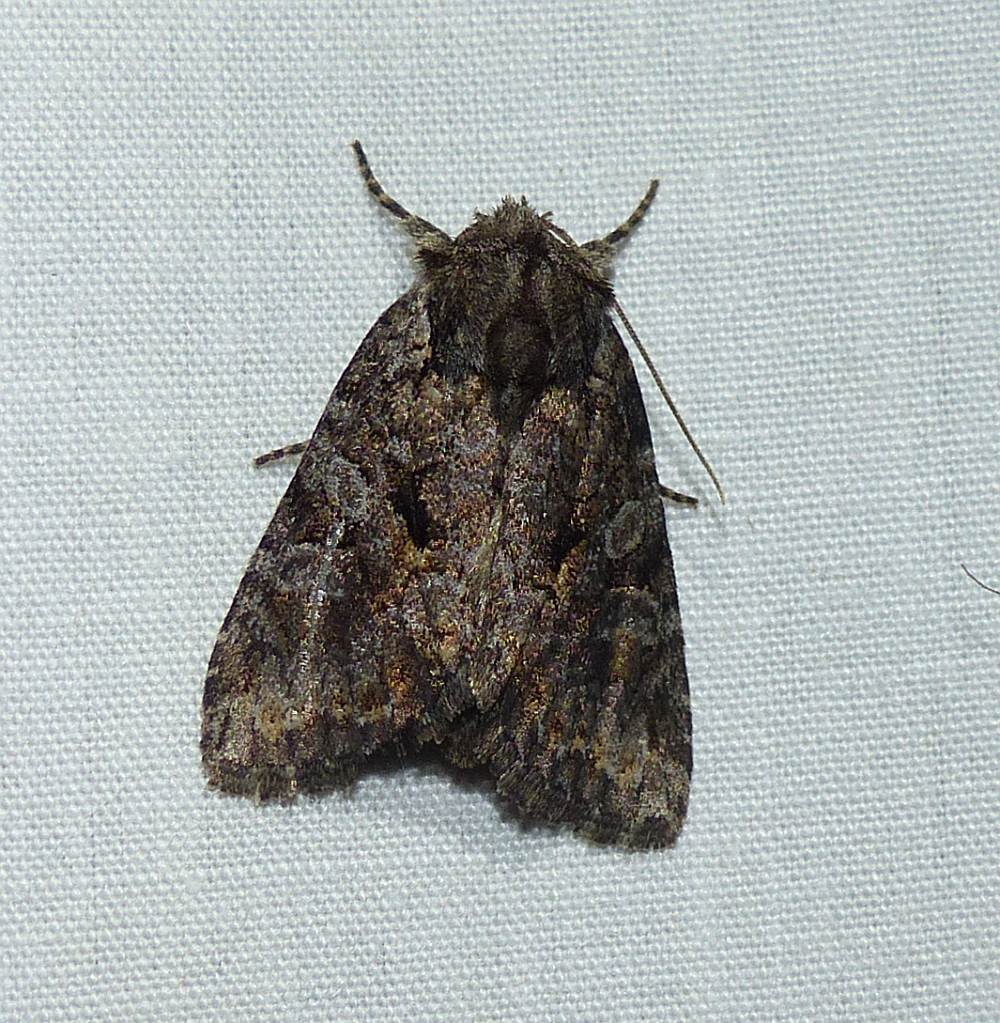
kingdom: Animalia
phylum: Arthropoda
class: Insecta
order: Lepidoptera
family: Noctuidae
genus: Orthodes
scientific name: Orthodes detracta
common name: Disparaged arches moth
